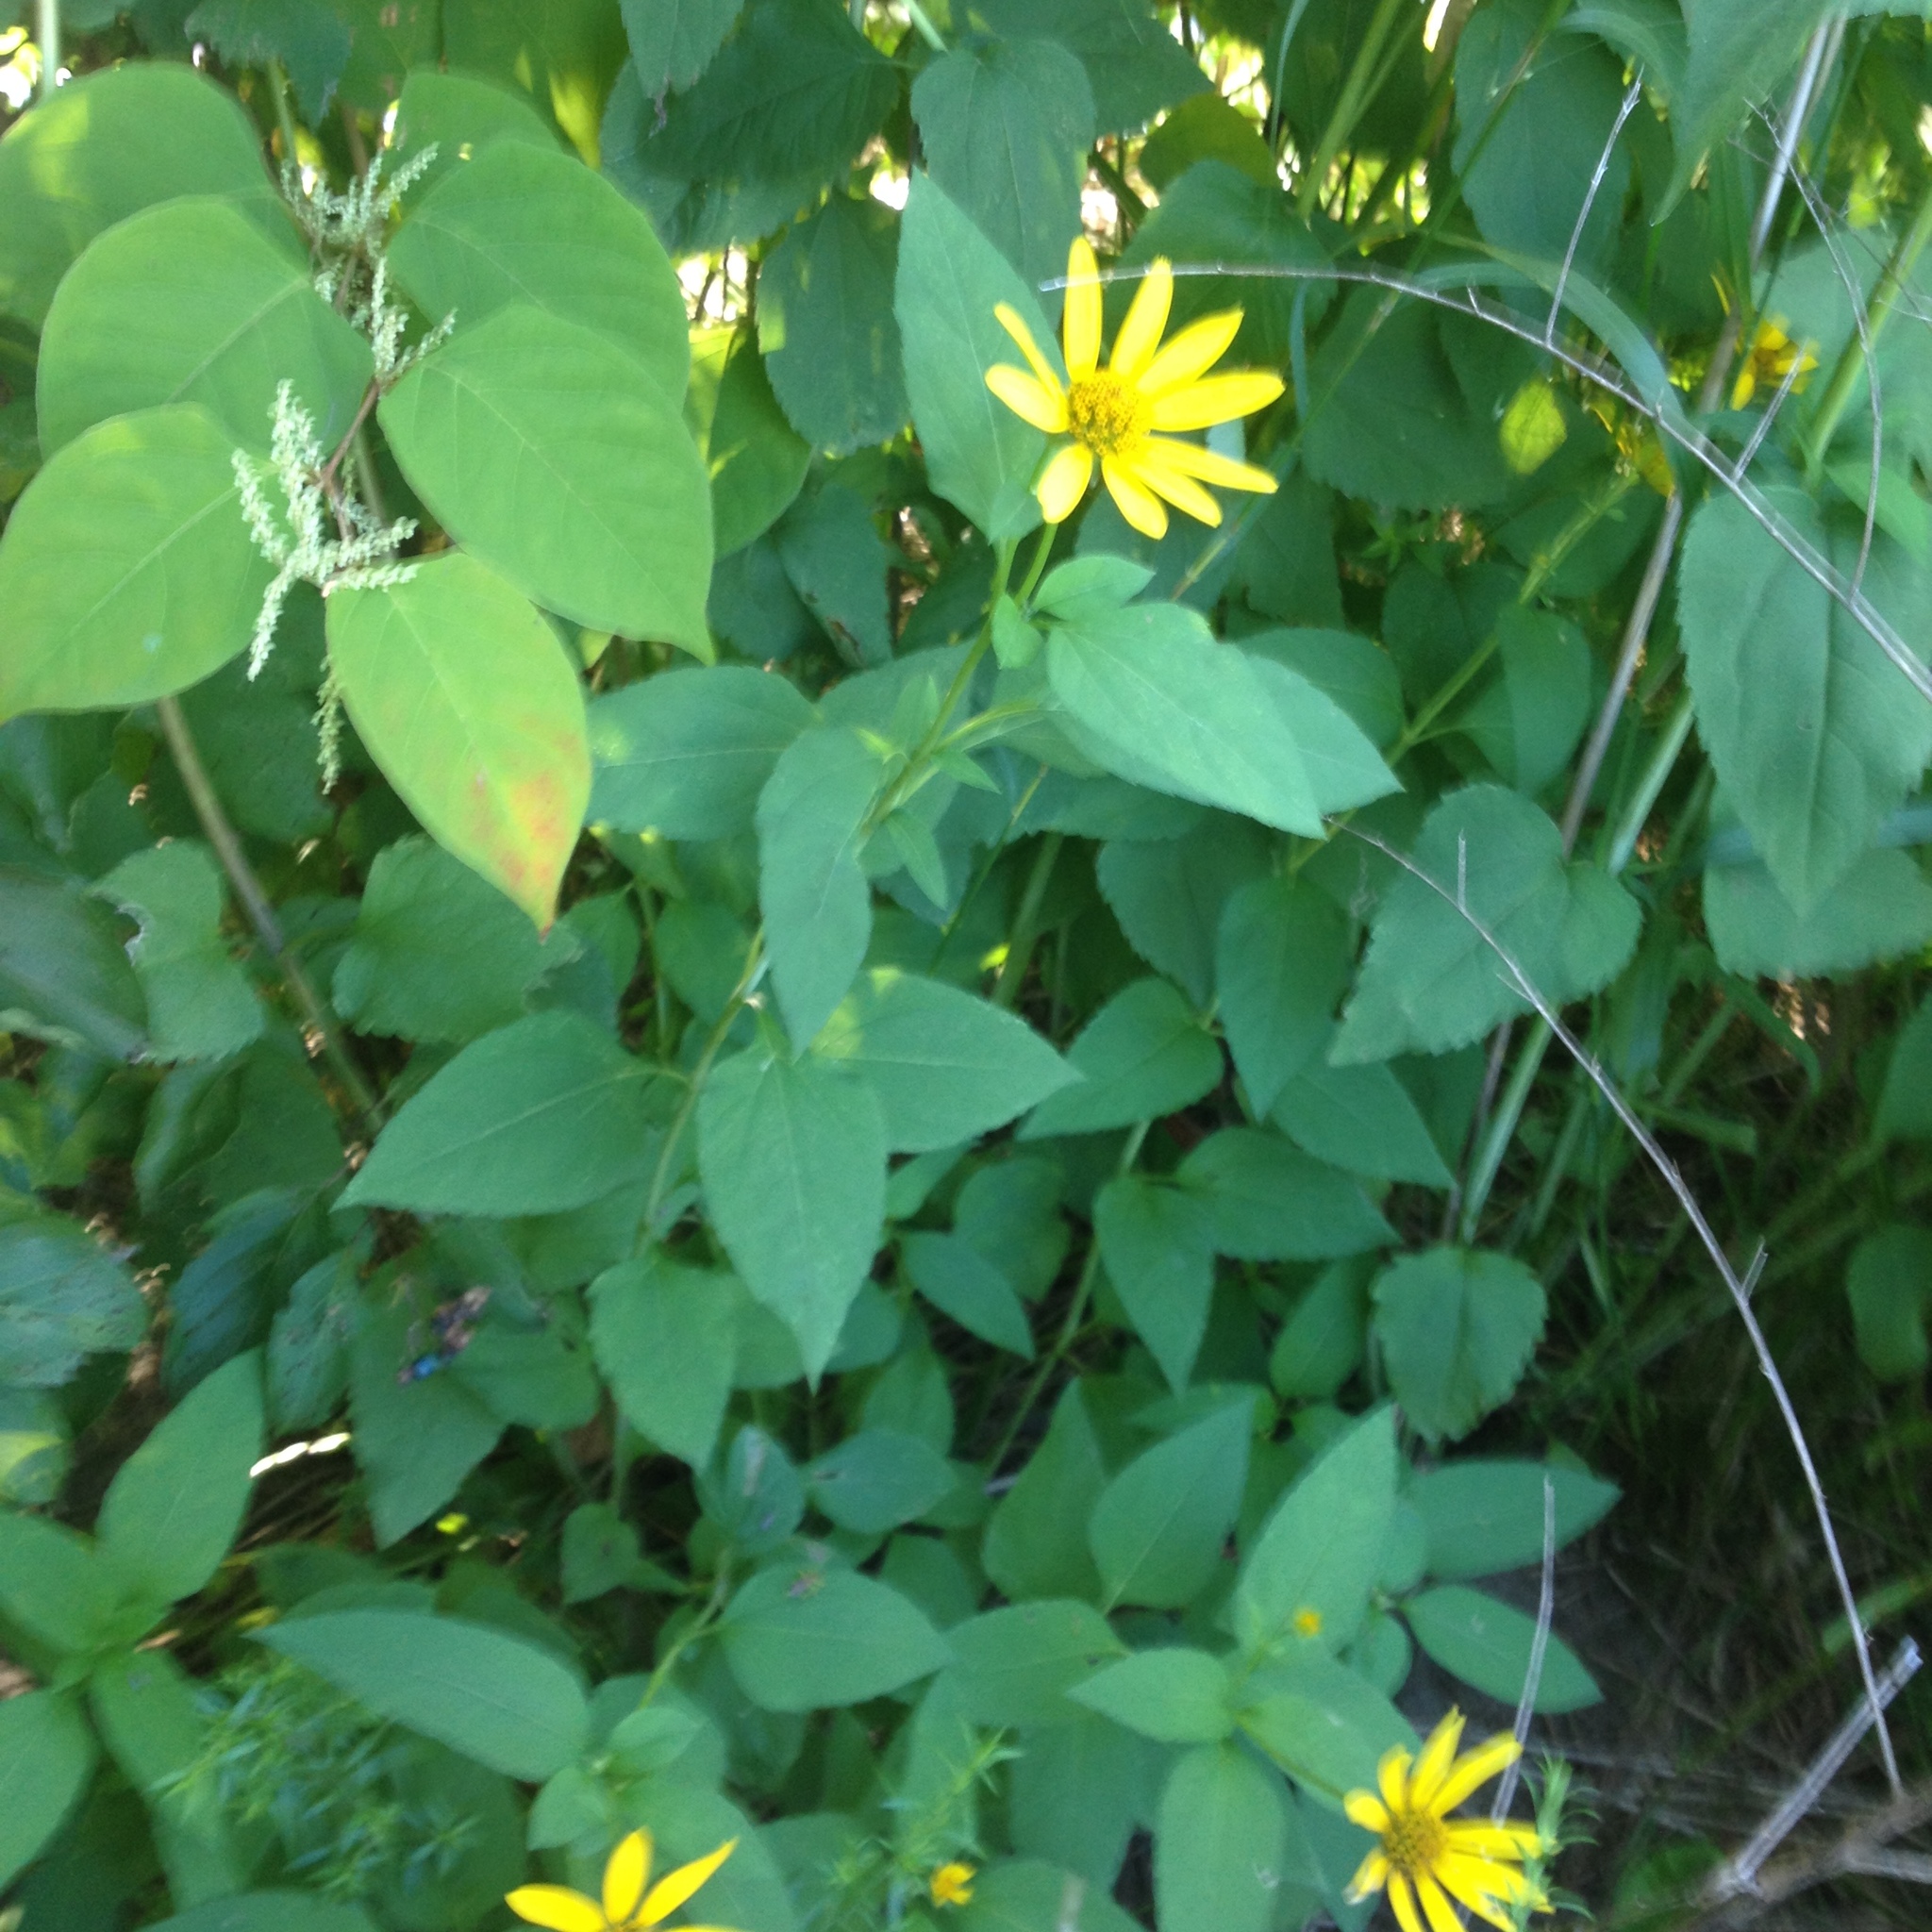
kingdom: Plantae
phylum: Tracheophyta
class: Magnoliopsida
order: Asterales
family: Asteraceae
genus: Helianthus
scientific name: Helianthus divaricatus
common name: Divergent sunflower
